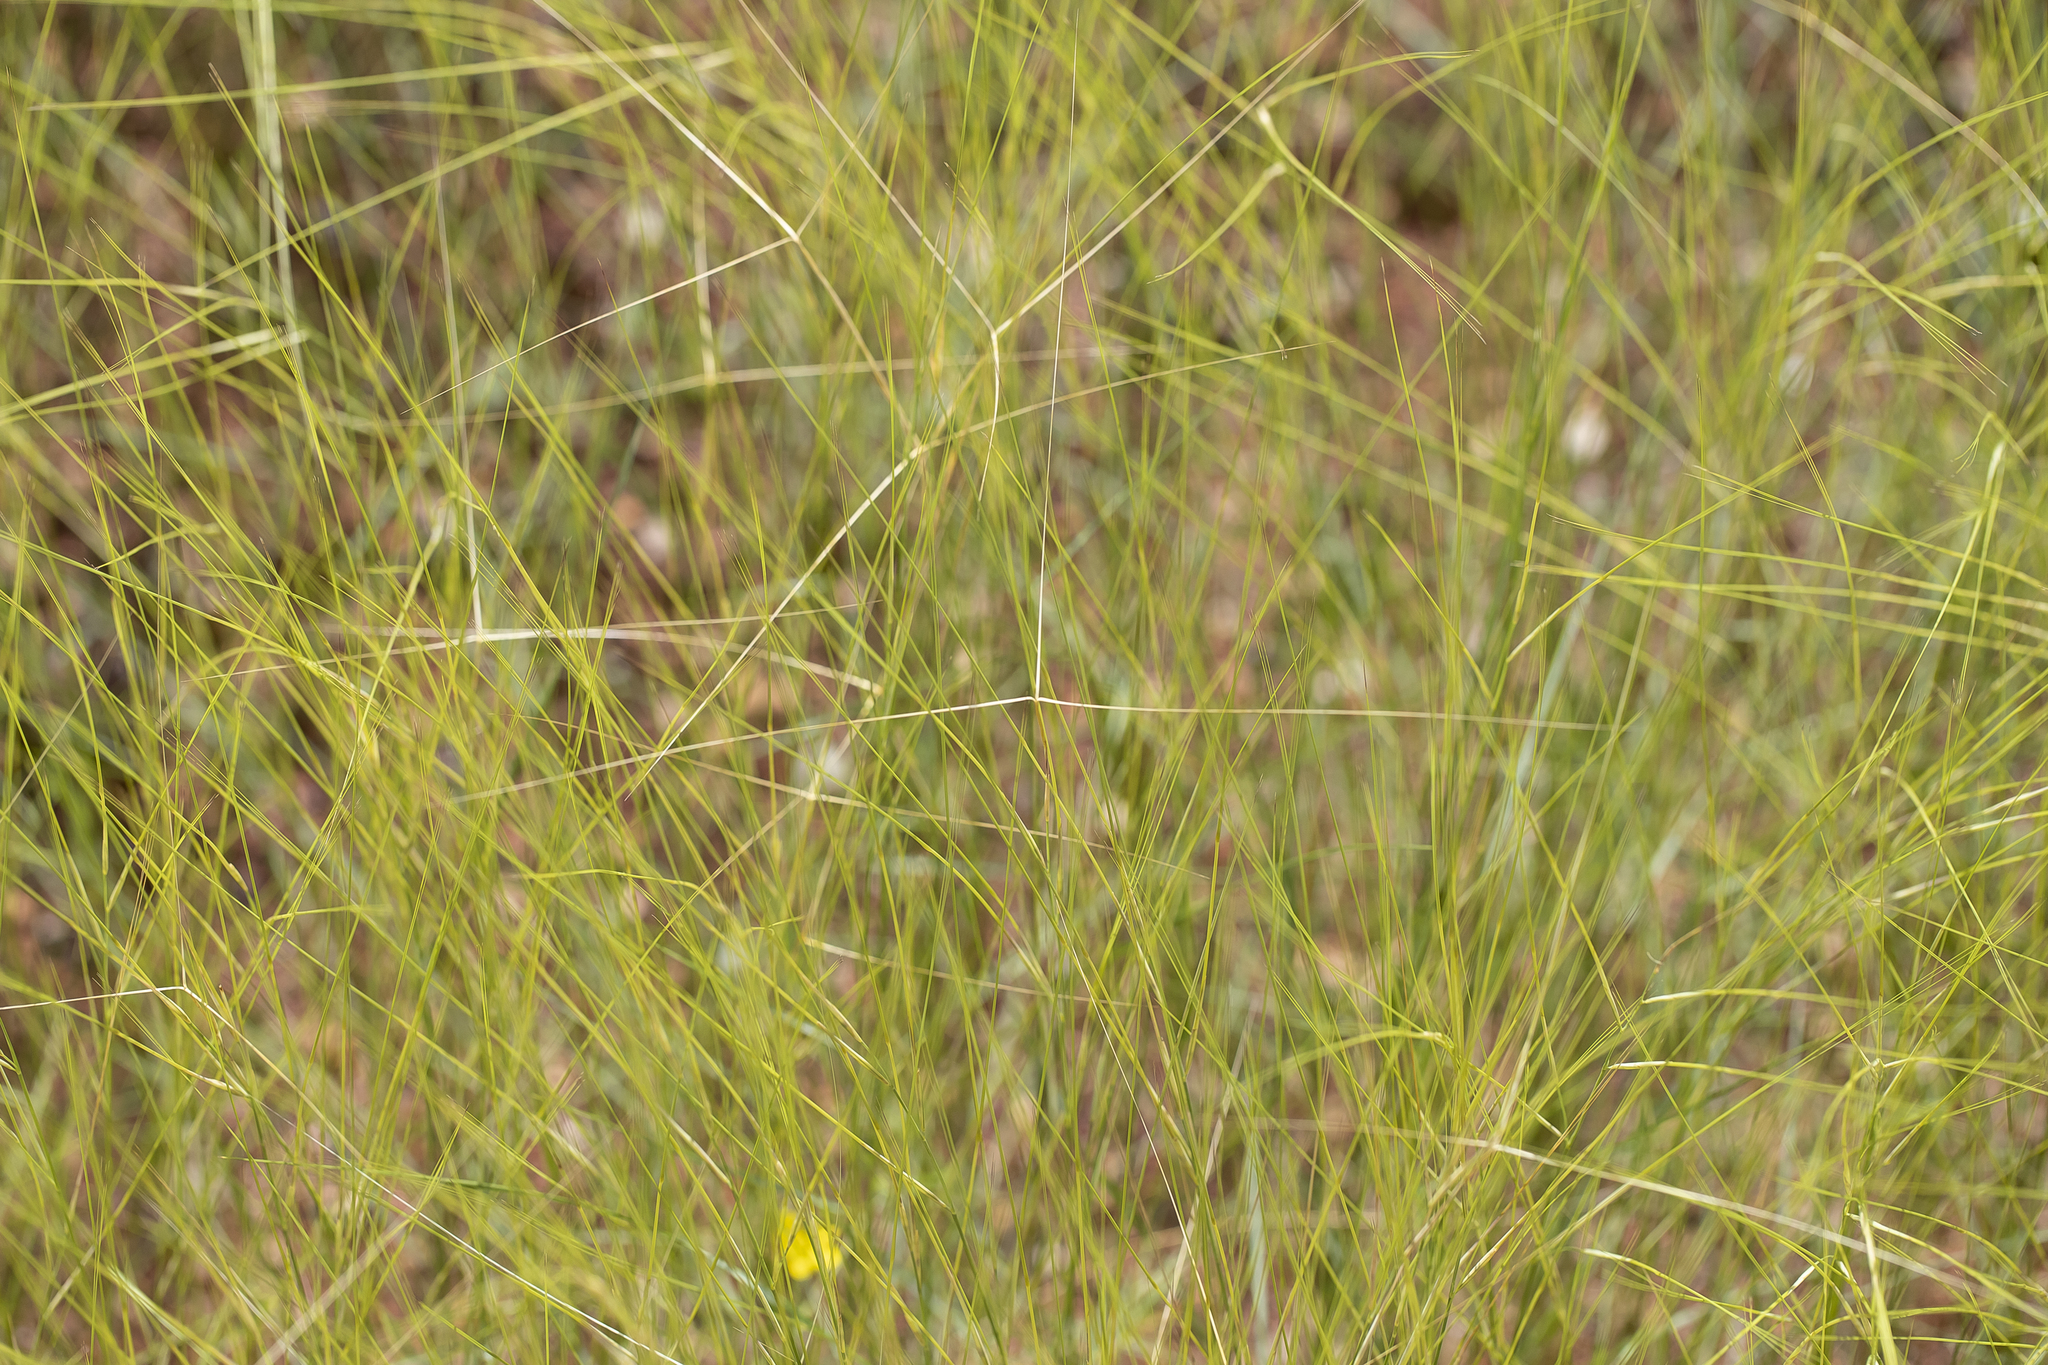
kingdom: Plantae
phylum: Tracheophyta
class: Liliopsida
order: Poales
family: Poaceae
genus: Aristida
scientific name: Aristida hygrometrica
